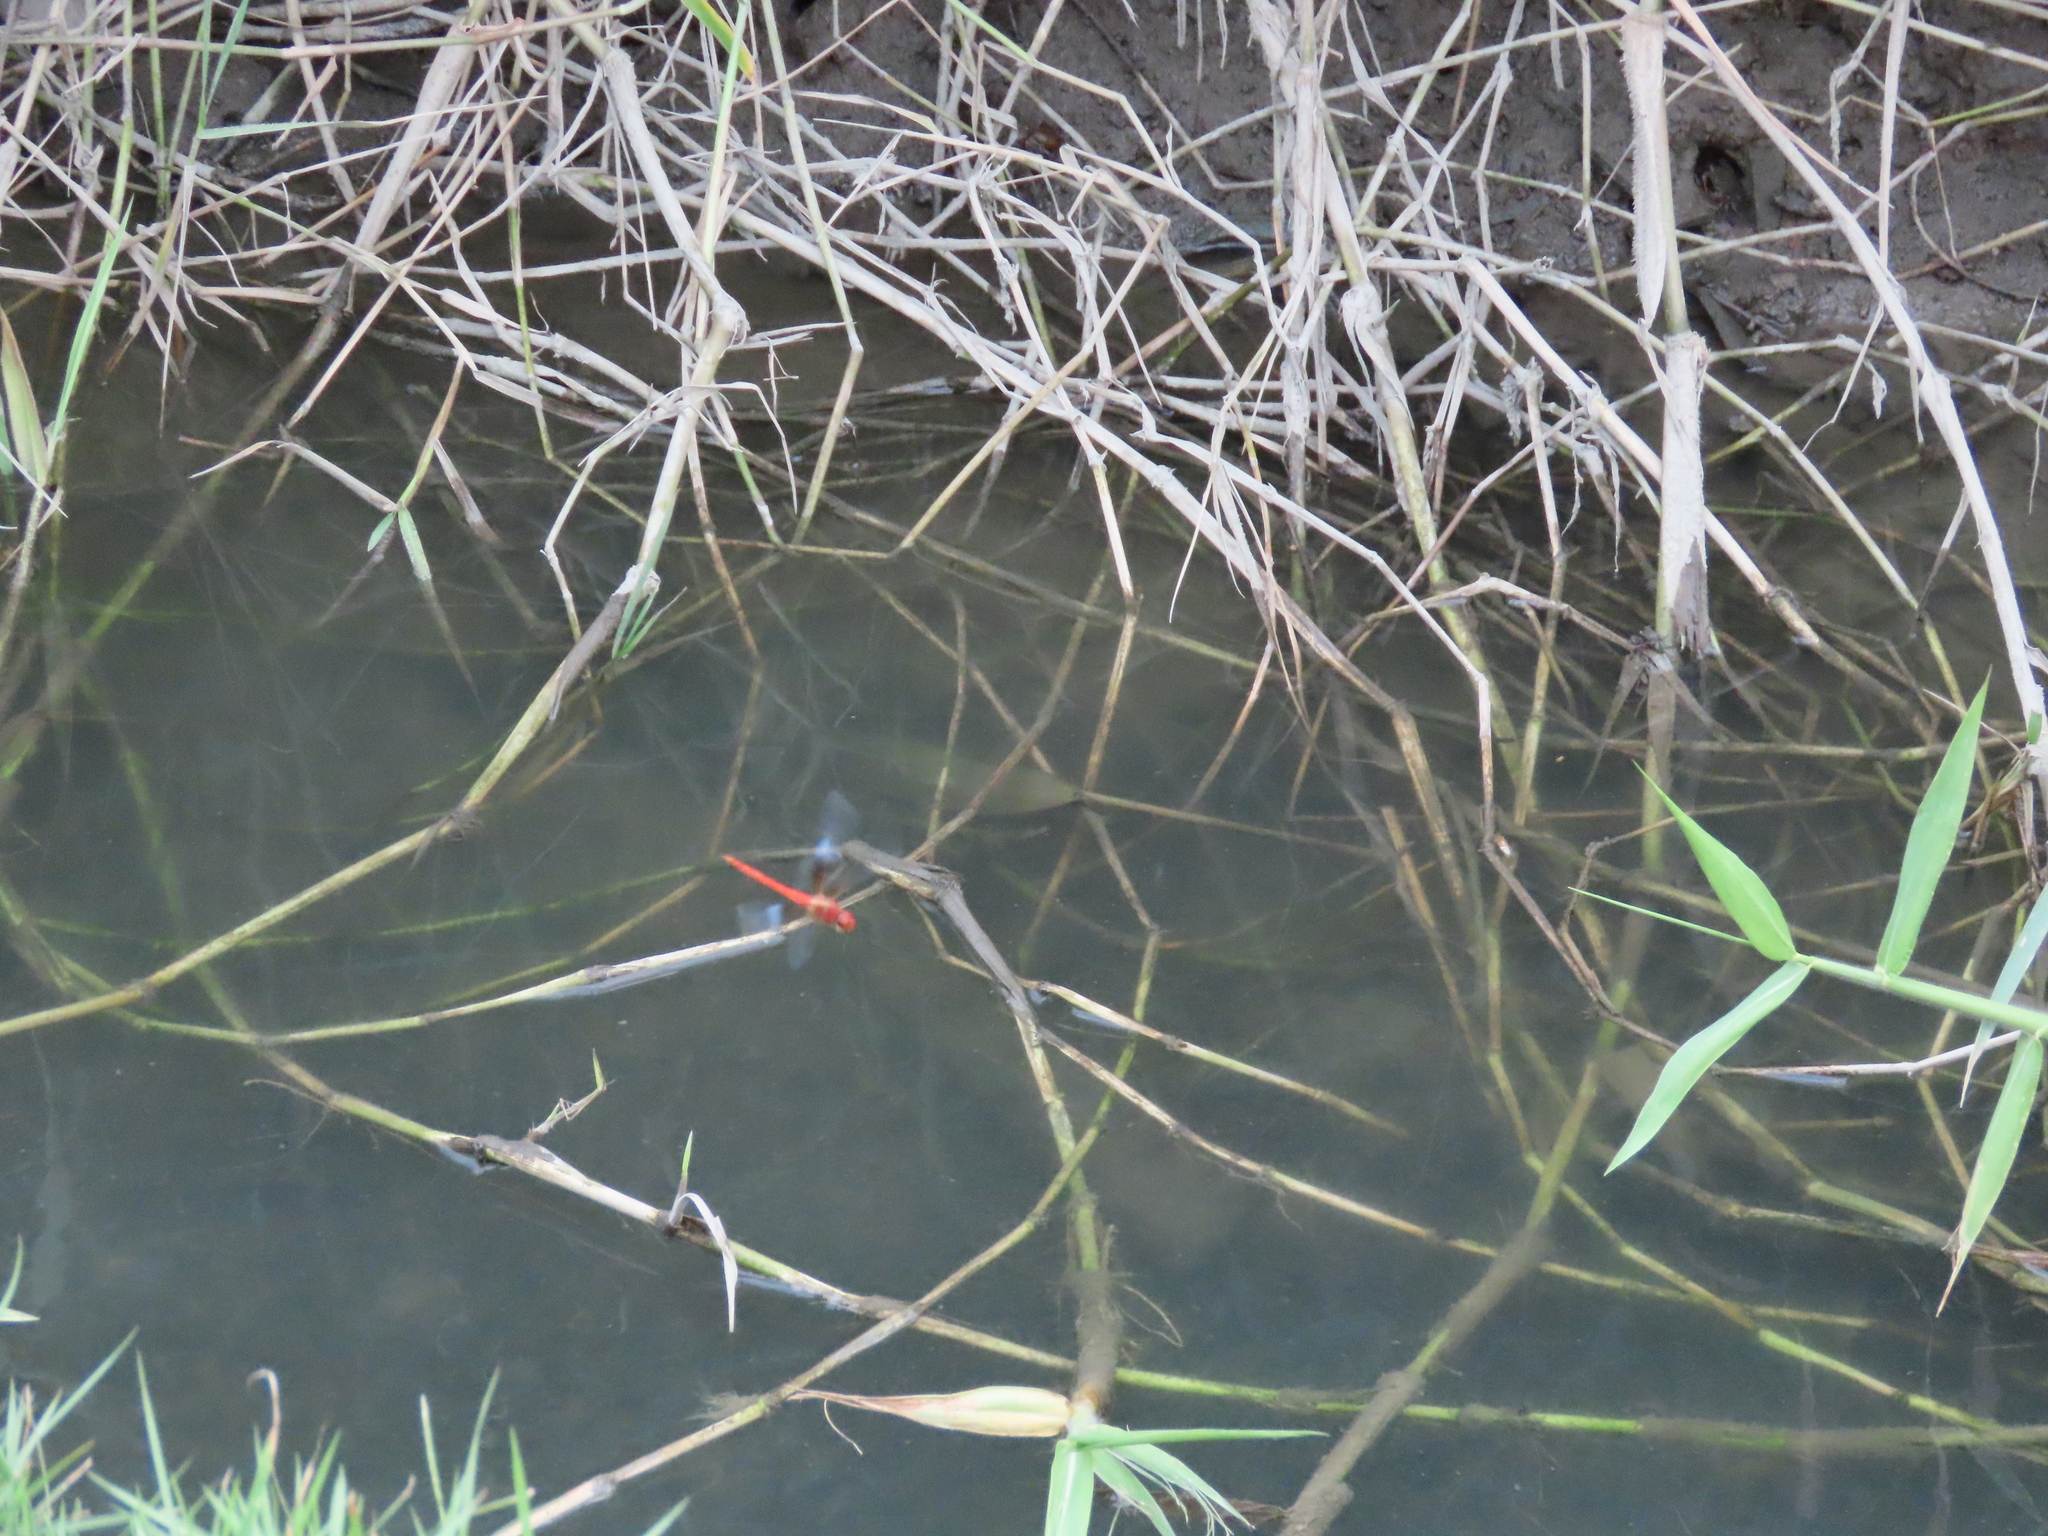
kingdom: Animalia
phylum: Arthropoda
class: Insecta
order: Odonata
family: Libellulidae
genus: Tholymis
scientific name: Tholymis tillarga
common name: Coral-tailed cloud wing
